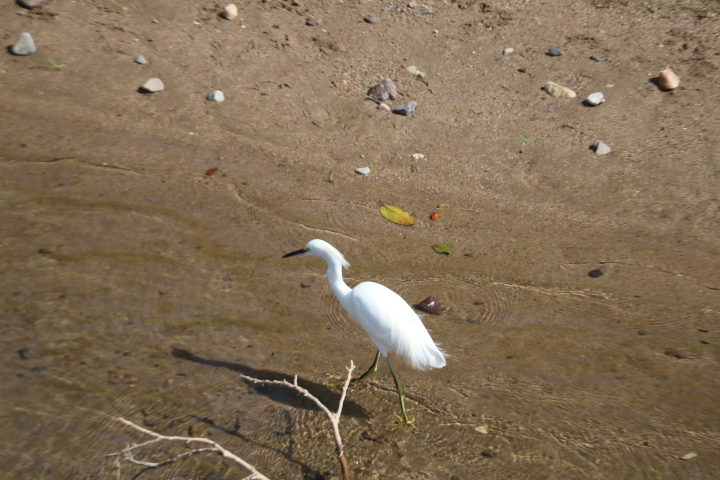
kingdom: Animalia
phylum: Chordata
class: Aves
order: Pelecaniformes
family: Ardeidae
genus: Egretta
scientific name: Egretta thula
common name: Snowy egret
